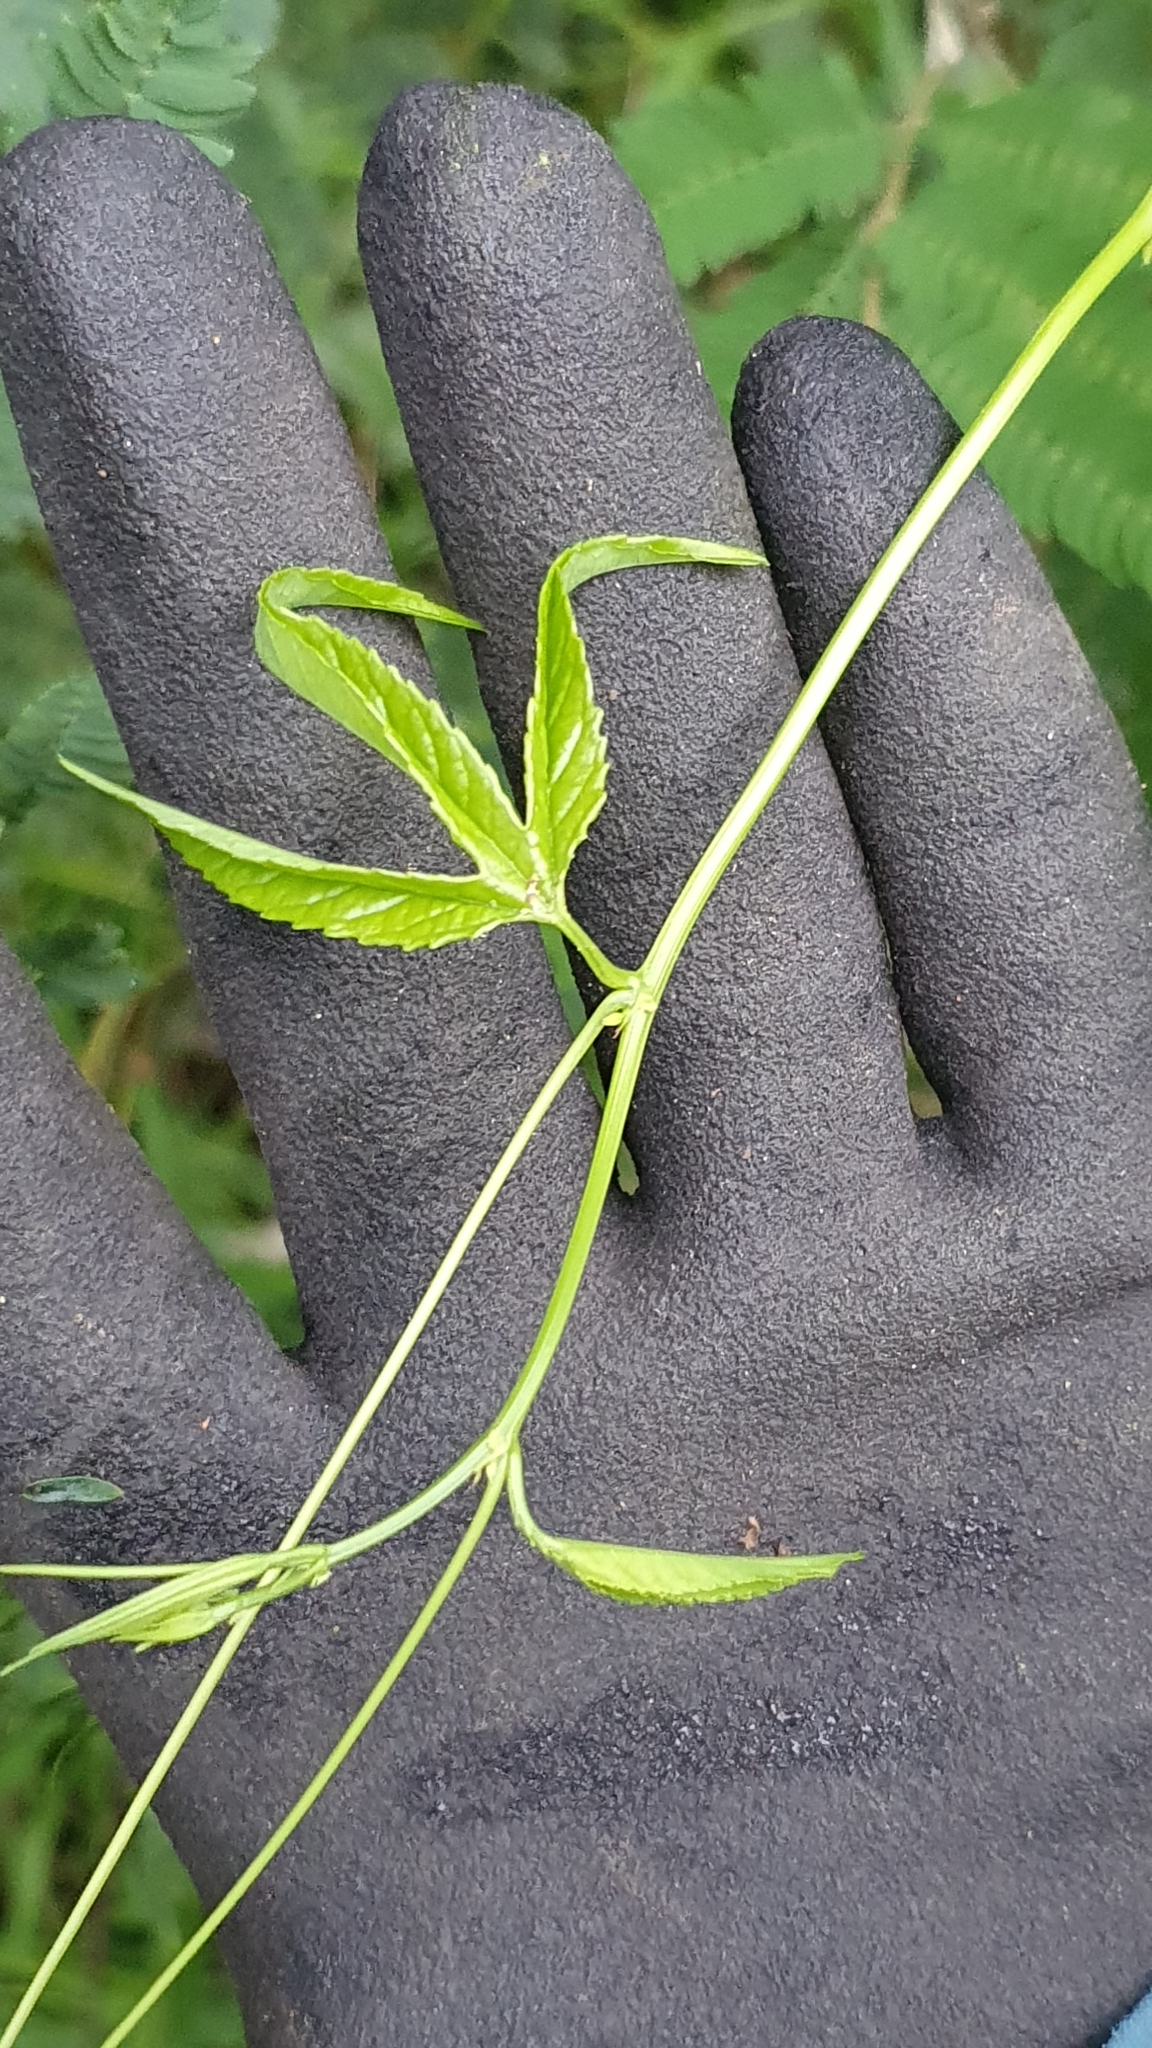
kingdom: Plantae
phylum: Tracheophyta
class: Magnoliopsida
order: Malpighiales
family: Passifloraceae
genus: Passiflora
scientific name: Passiflora tripartita
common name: Banana poka
